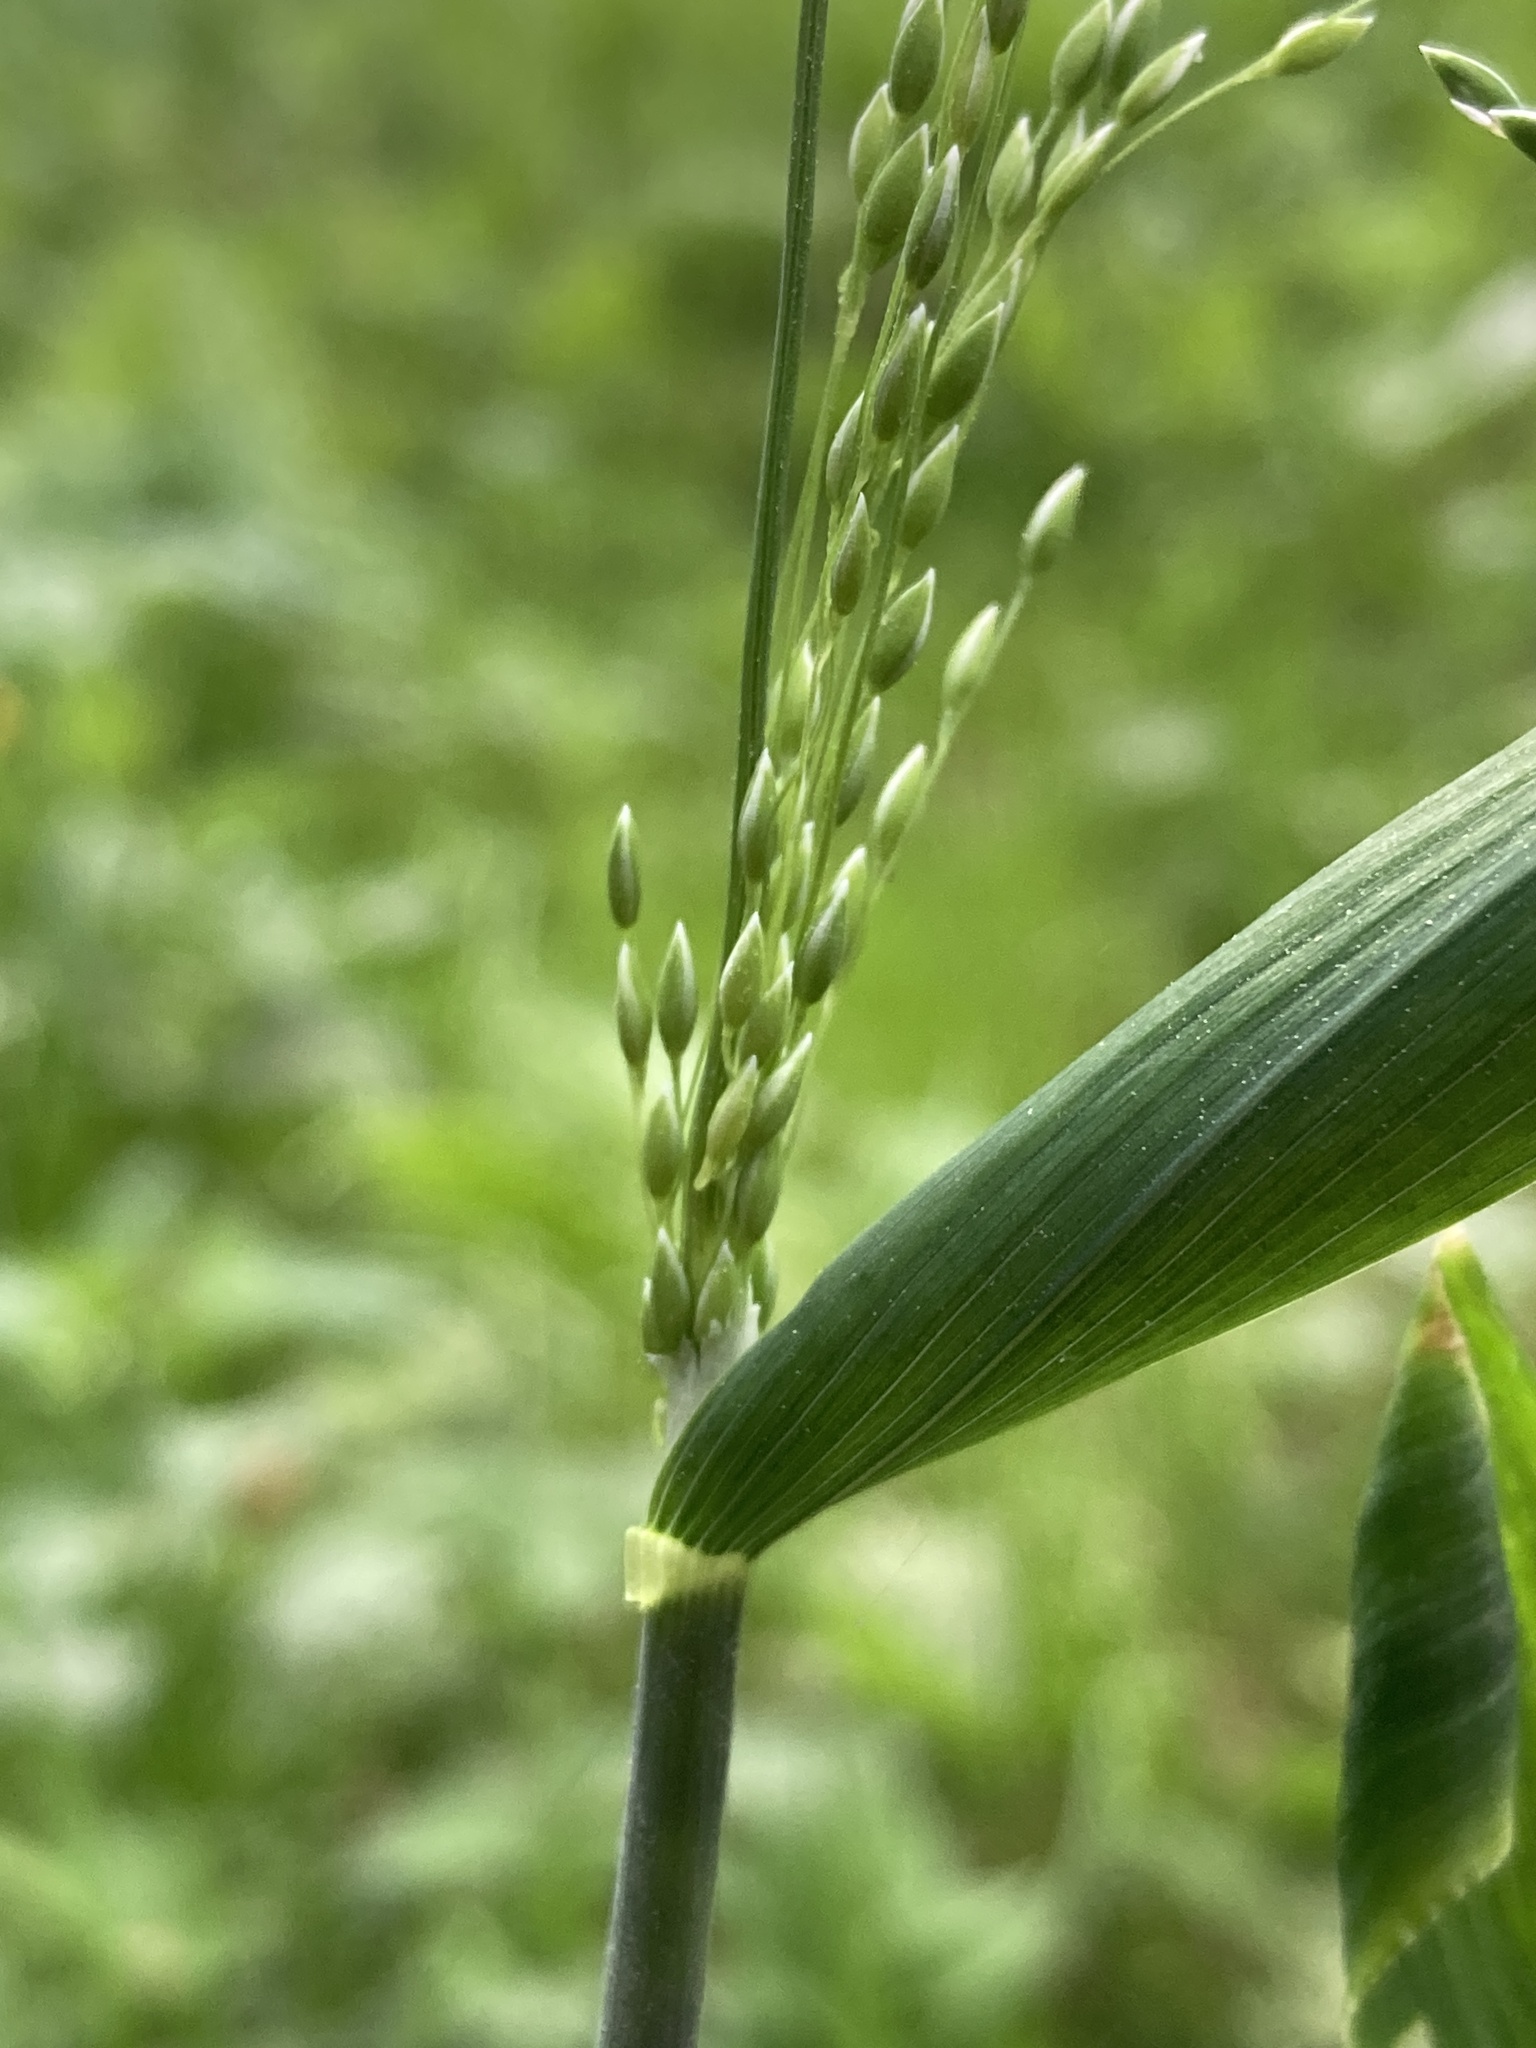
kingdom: Plantae
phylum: Tracheophyta
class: Liliopsida
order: Poales
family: Poaceae
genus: Milium
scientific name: Milium effusum
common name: Wood millet
